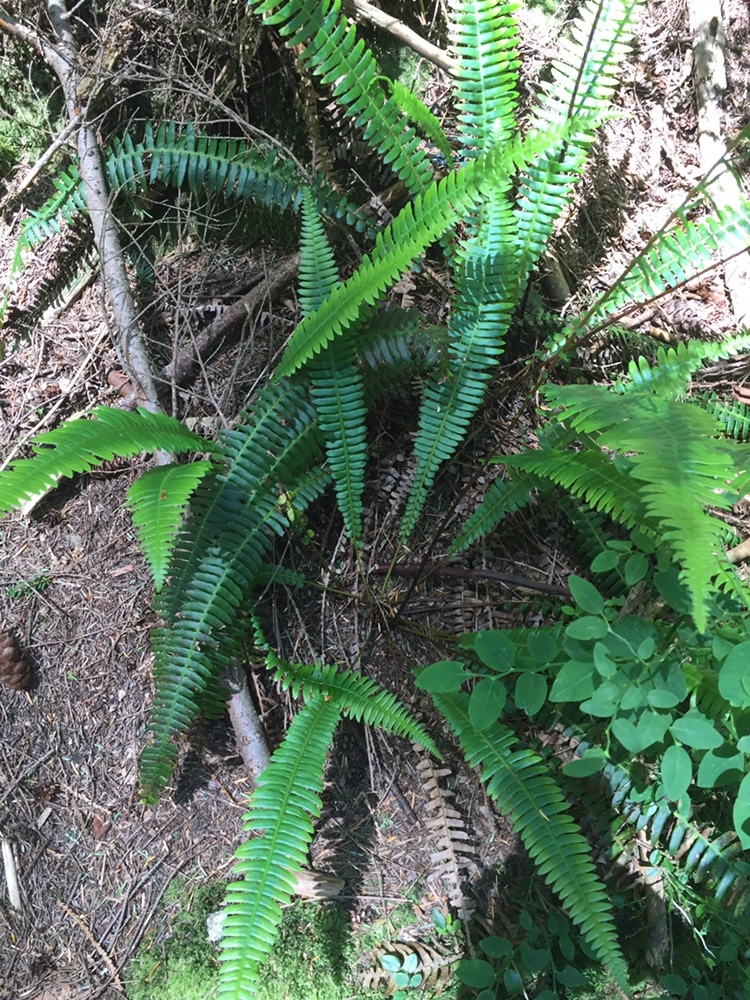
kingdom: Plantae
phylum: Tracheophyta
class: Polypodiopsida
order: Polypodiales
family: Blechnaceae
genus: Struthiopteris
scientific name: Struthiopteris spicant
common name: Deer fern
